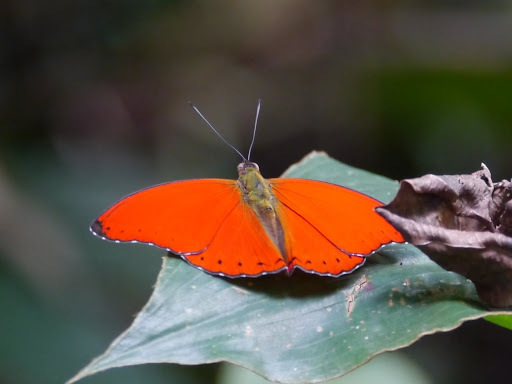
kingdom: Animalia
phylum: Arthropoda
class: Insecta
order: Lepidoptera
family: Nymphalidae
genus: Cymothoe
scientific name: Cymothoe coccinata
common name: Common red glider
